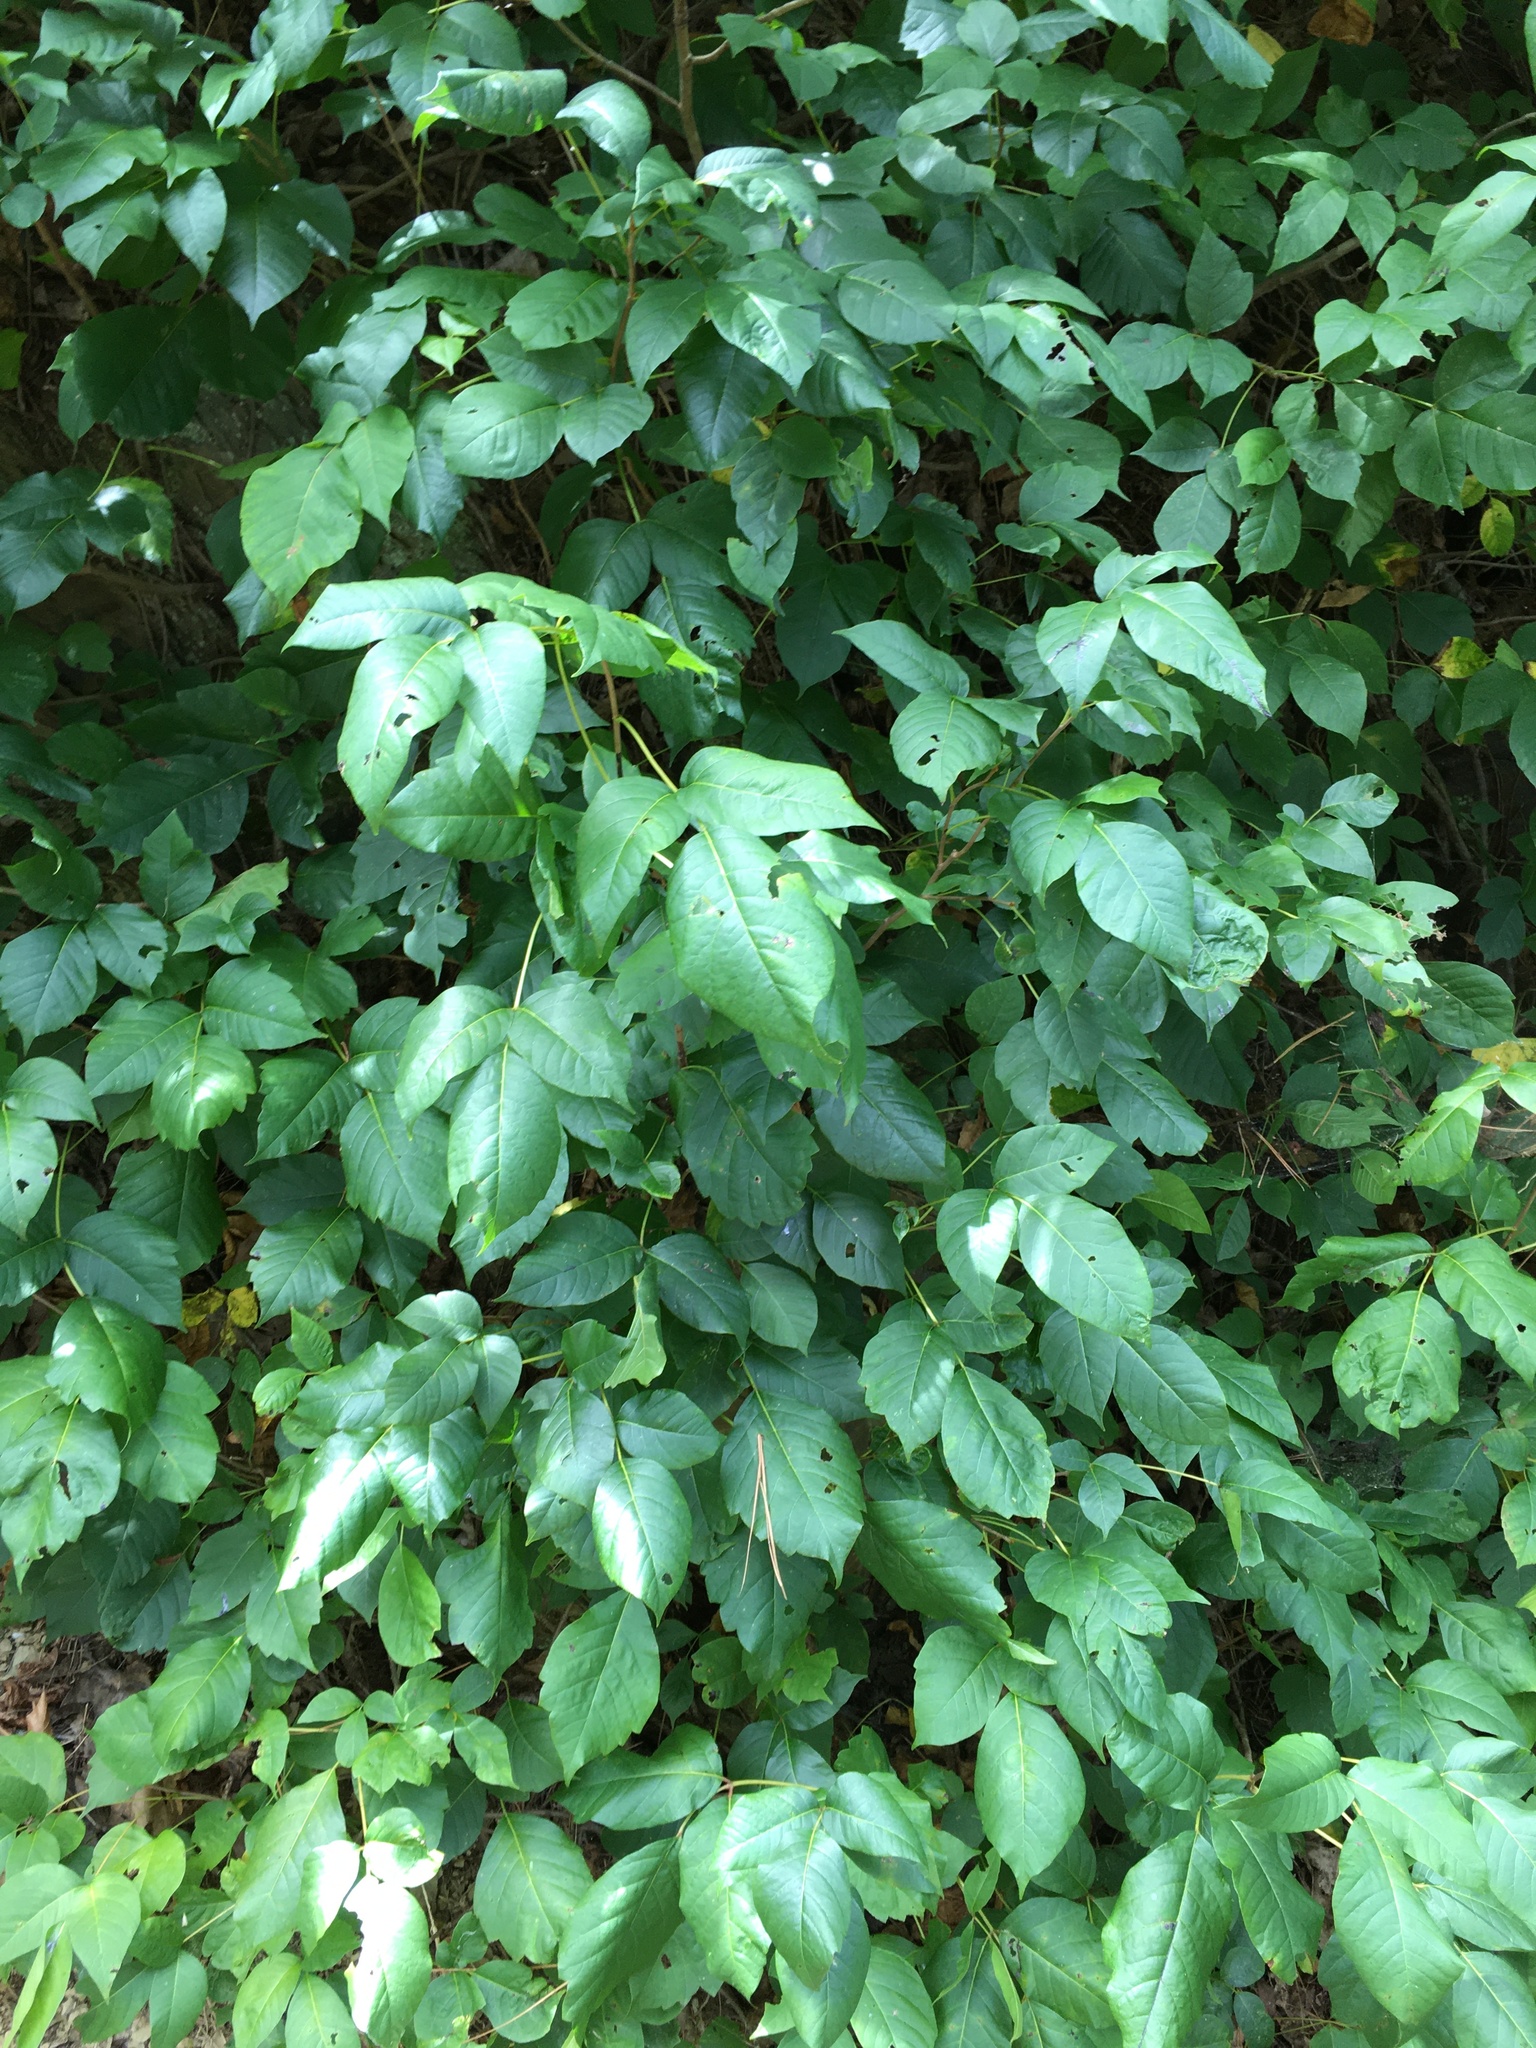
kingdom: Plantae
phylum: Tracheophyta
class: Magnoliopsida
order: Sapindales
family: Anacardiaceae
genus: Toxicodendron
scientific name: Toxicodendron radicans
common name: Poison ivy
